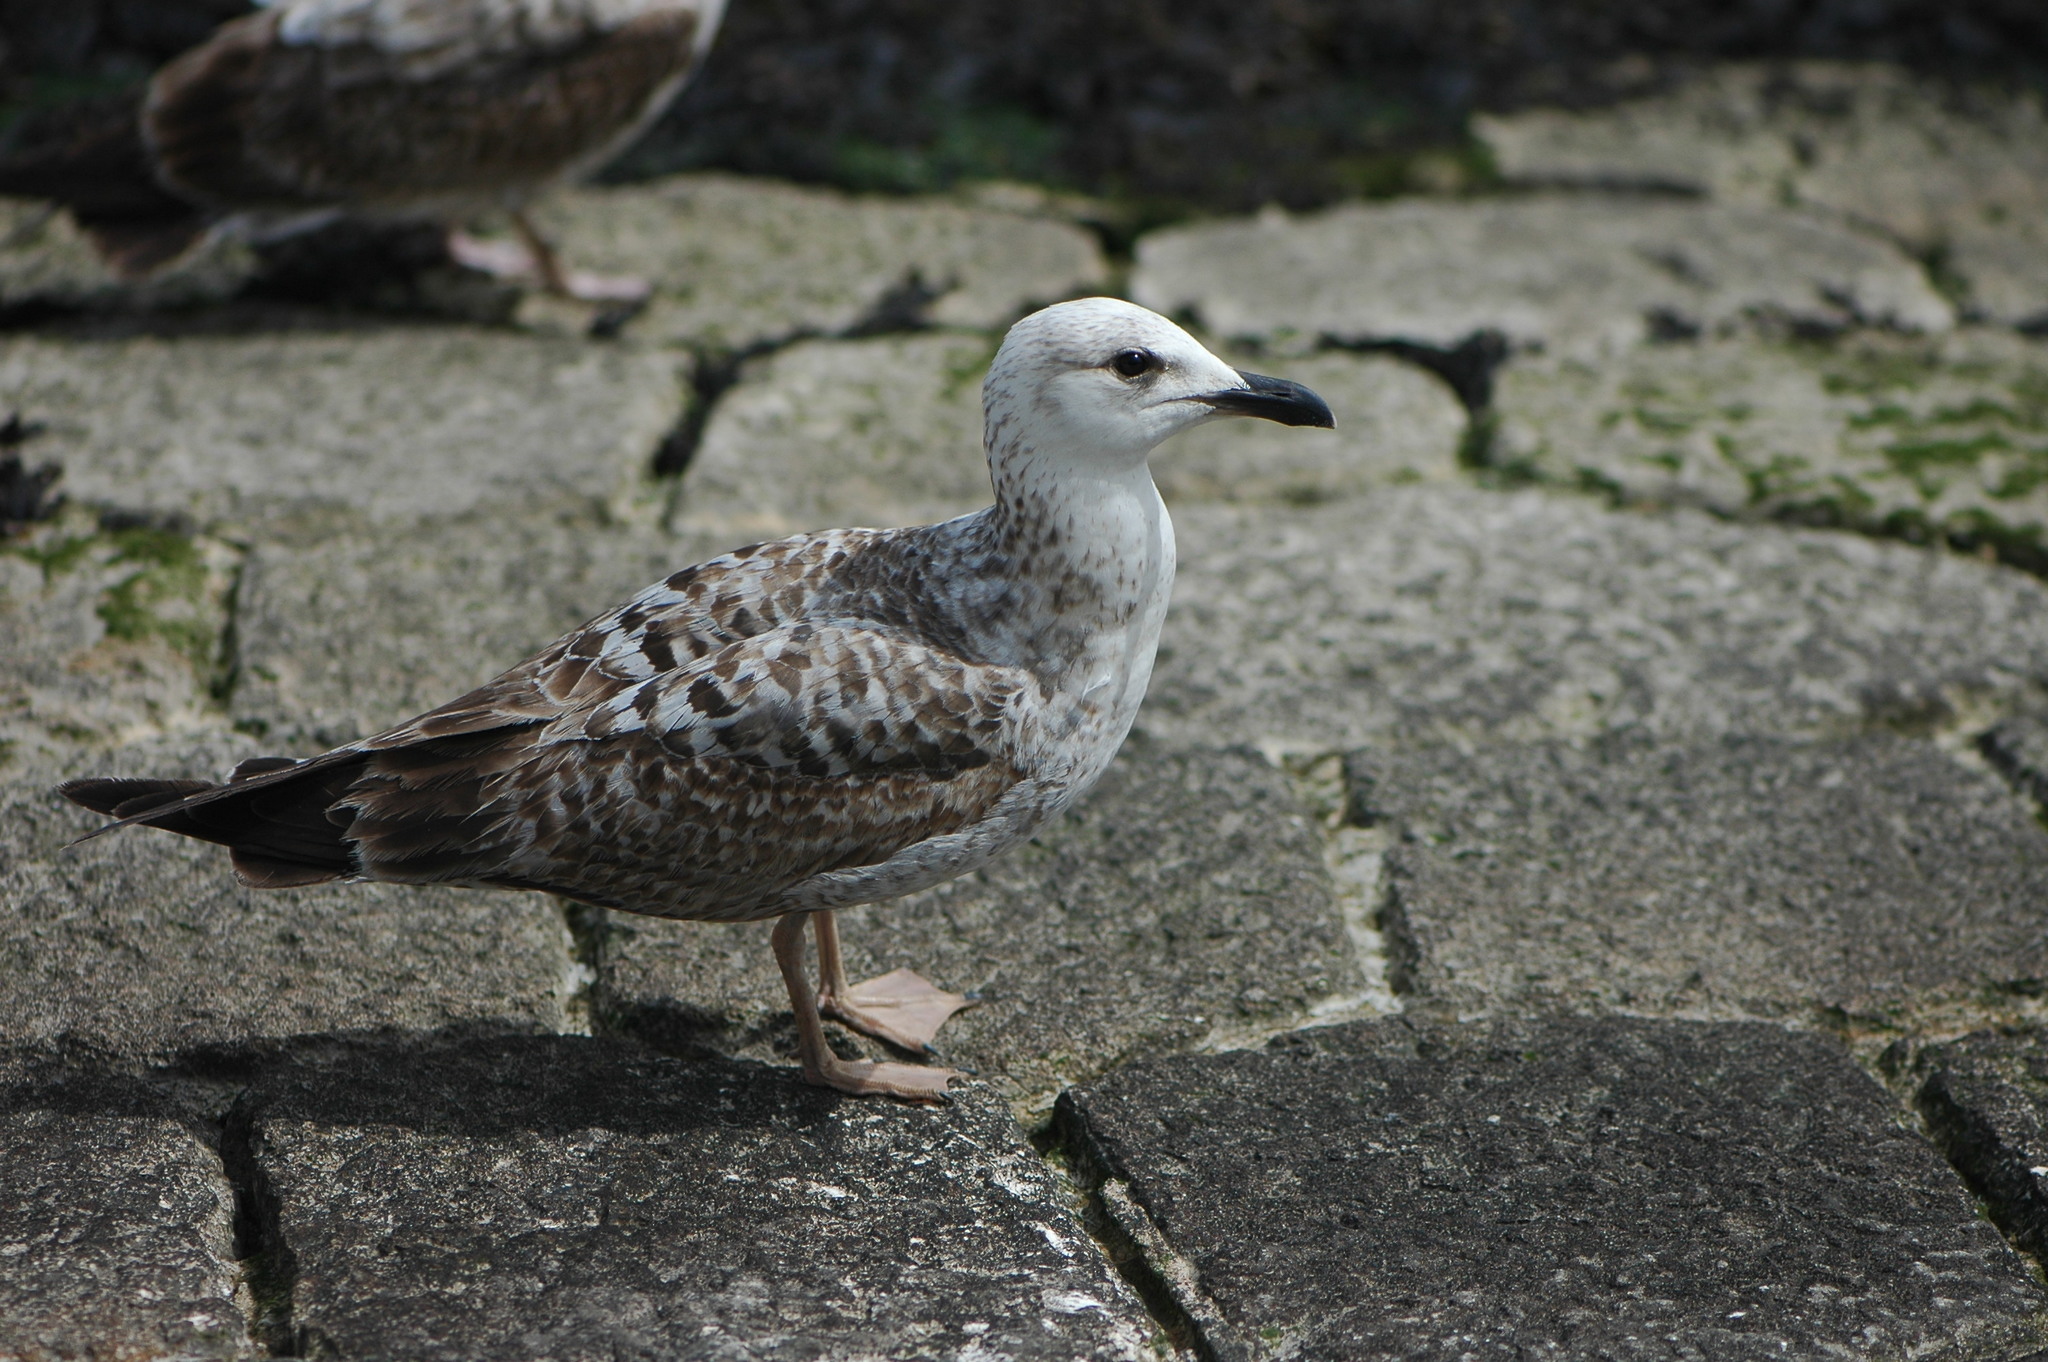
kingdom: Animalia
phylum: Chordata
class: Aves
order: Charadriiformes
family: Laridae
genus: Larus
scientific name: Larus michahellis
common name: Yellow-legged gull
